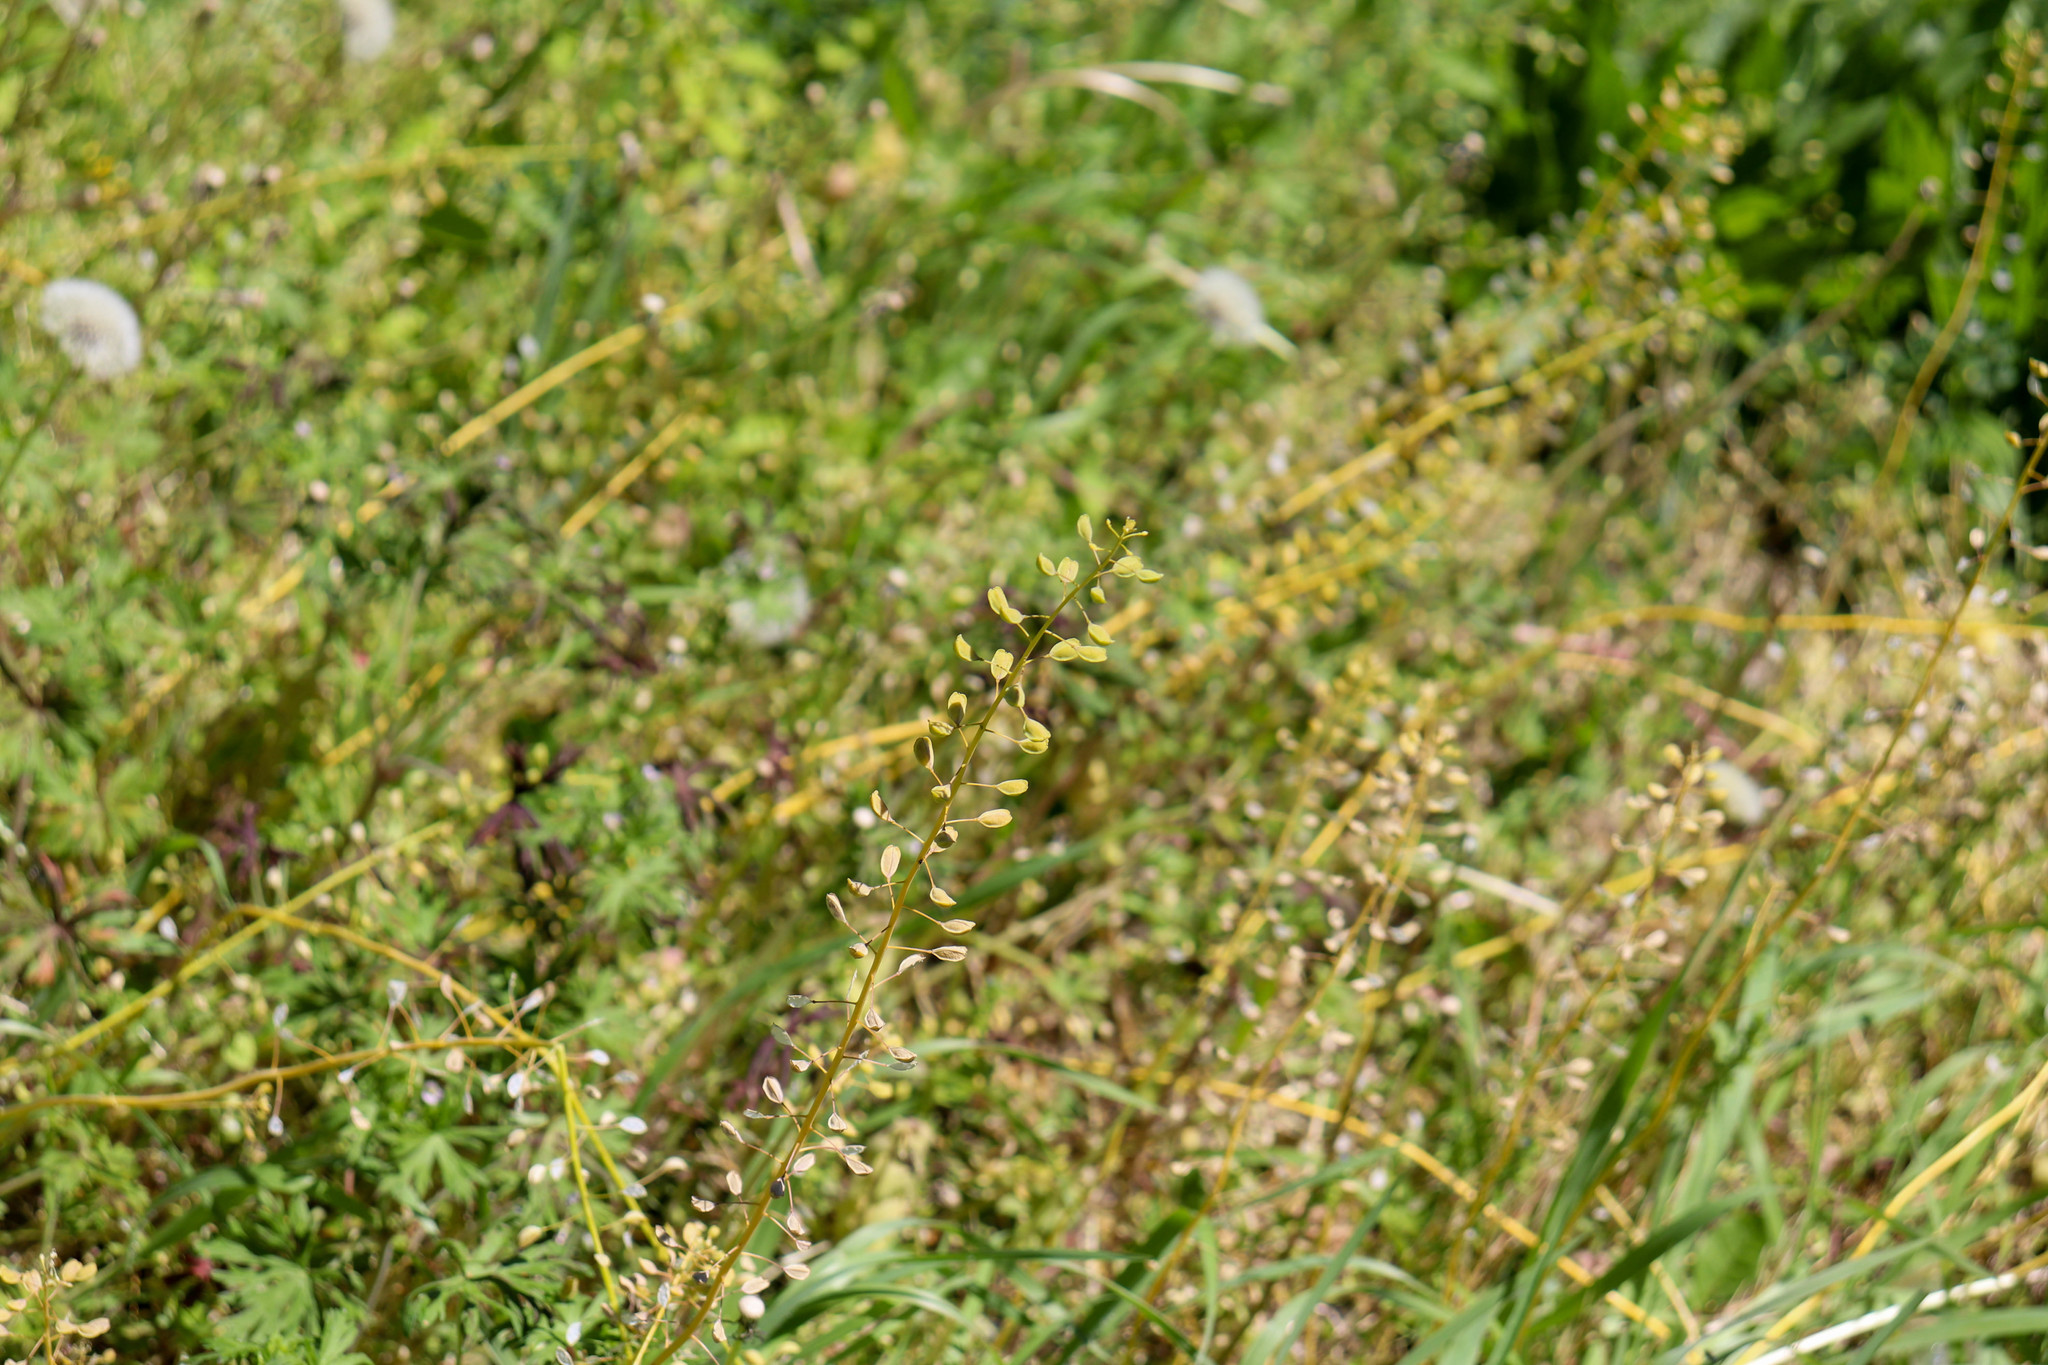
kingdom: Plantae
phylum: Tracheophyta
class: Magnoliopsida
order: Brassicales
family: Brassicaceae
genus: Mummenhoffia
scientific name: Mummenhoffia alliacea
